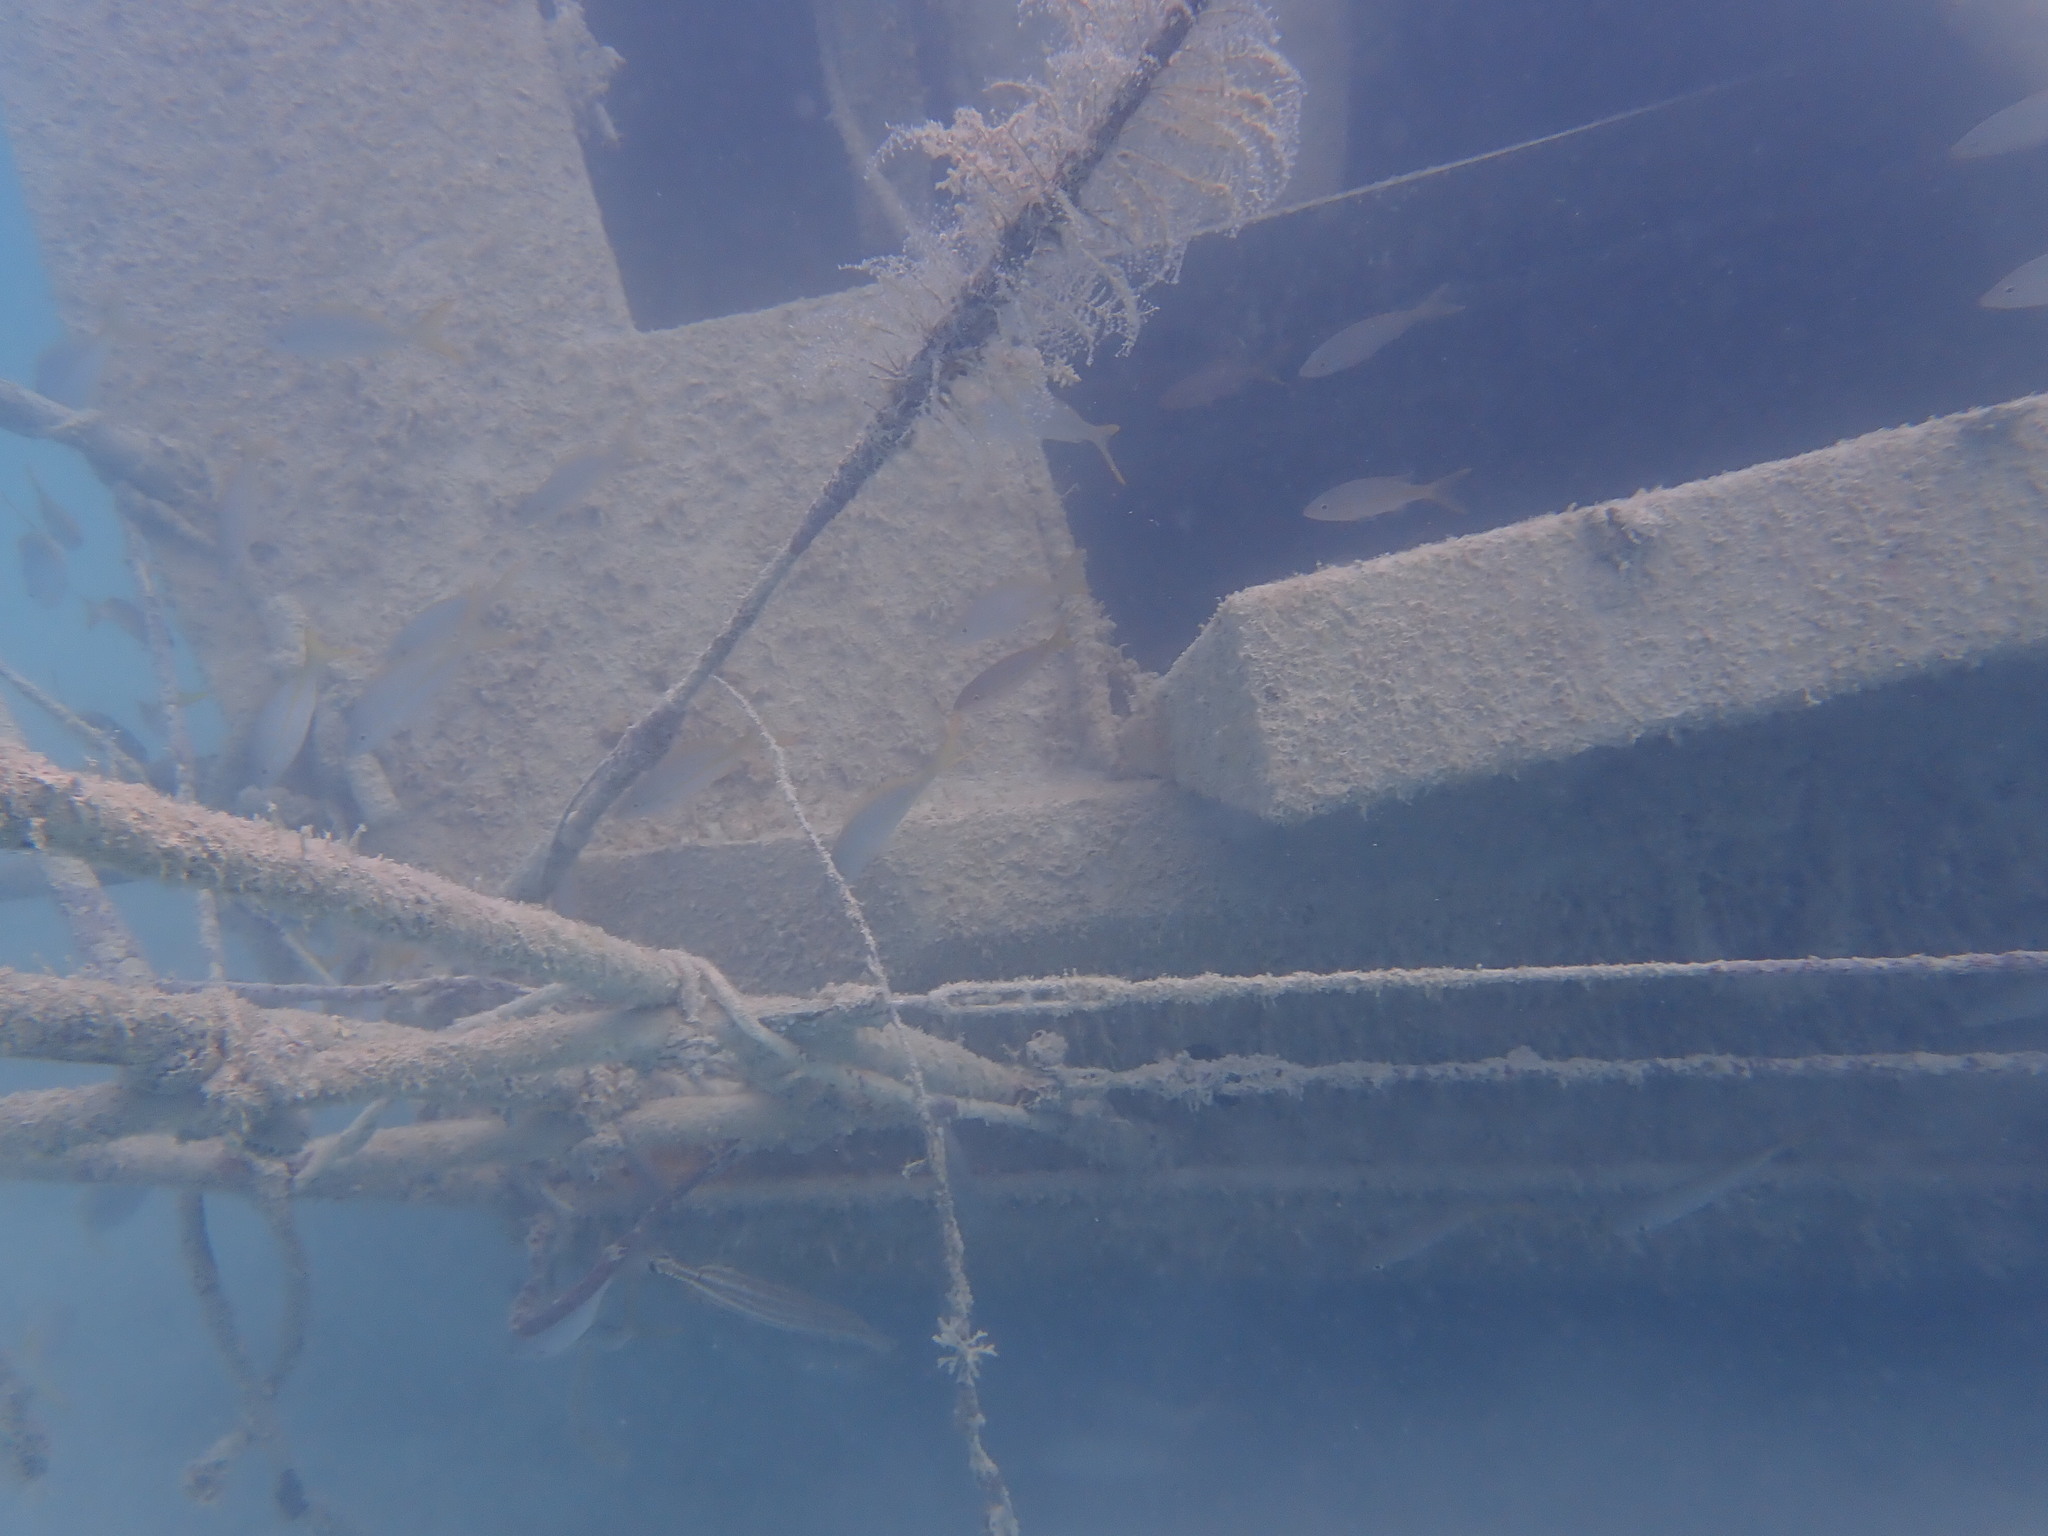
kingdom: Animalia
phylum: Chordata
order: Perciformes
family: Lutjanidae
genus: Ocyurus
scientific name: Ocyurus chrysurus
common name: Yellowtail snapper
